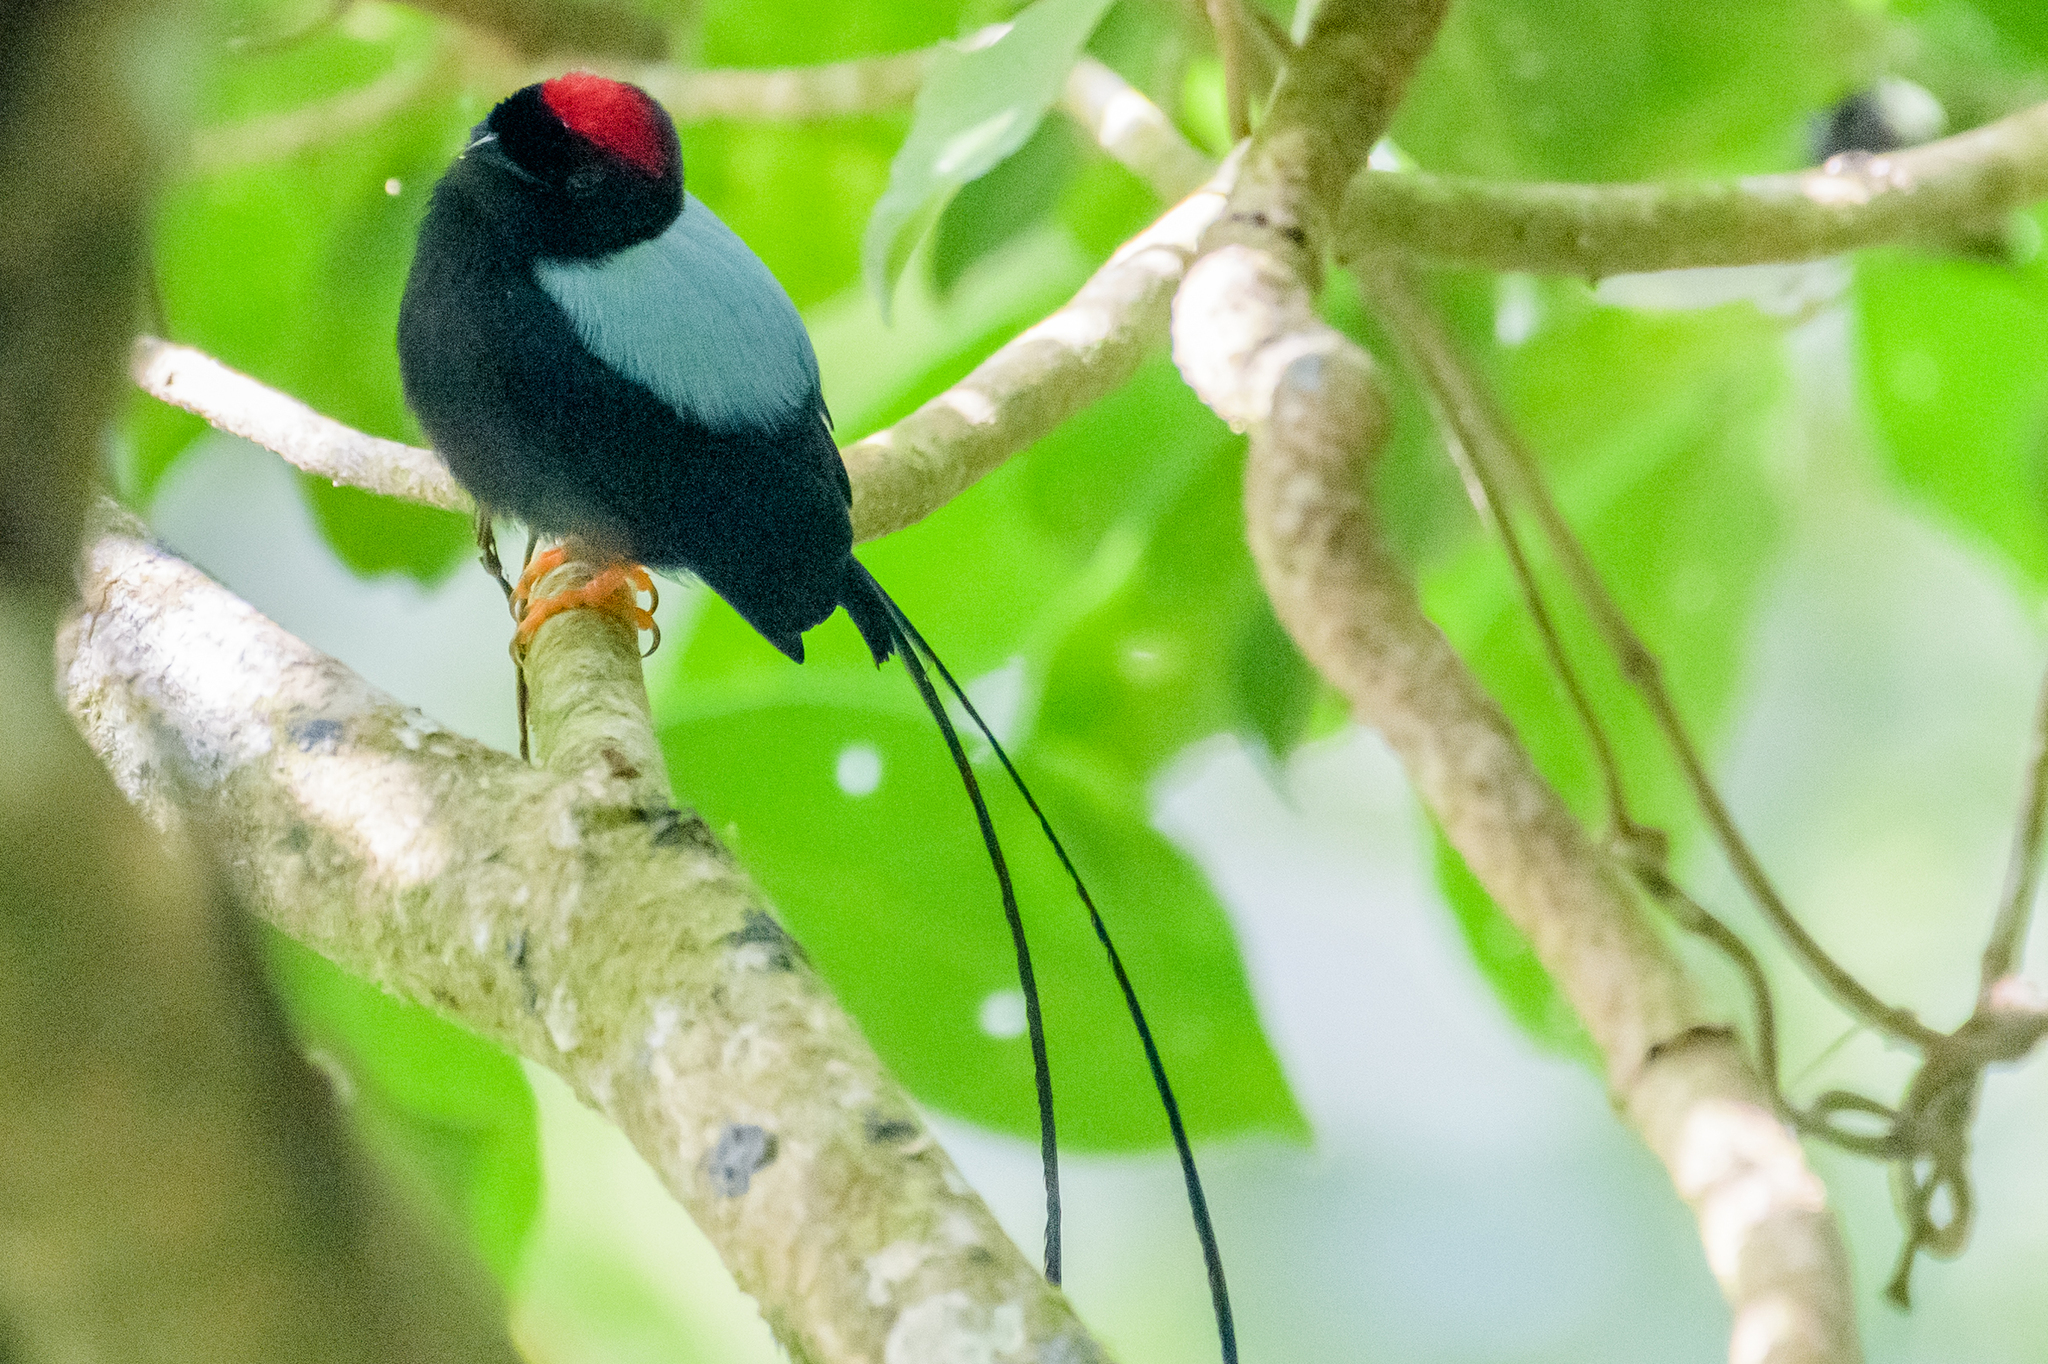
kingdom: Animalia
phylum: Chordata
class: Aves
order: Passeriformes
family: Pipridae
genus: Chiroxiphia
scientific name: Chiroxiphia linearis
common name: Long-tailed manakin
